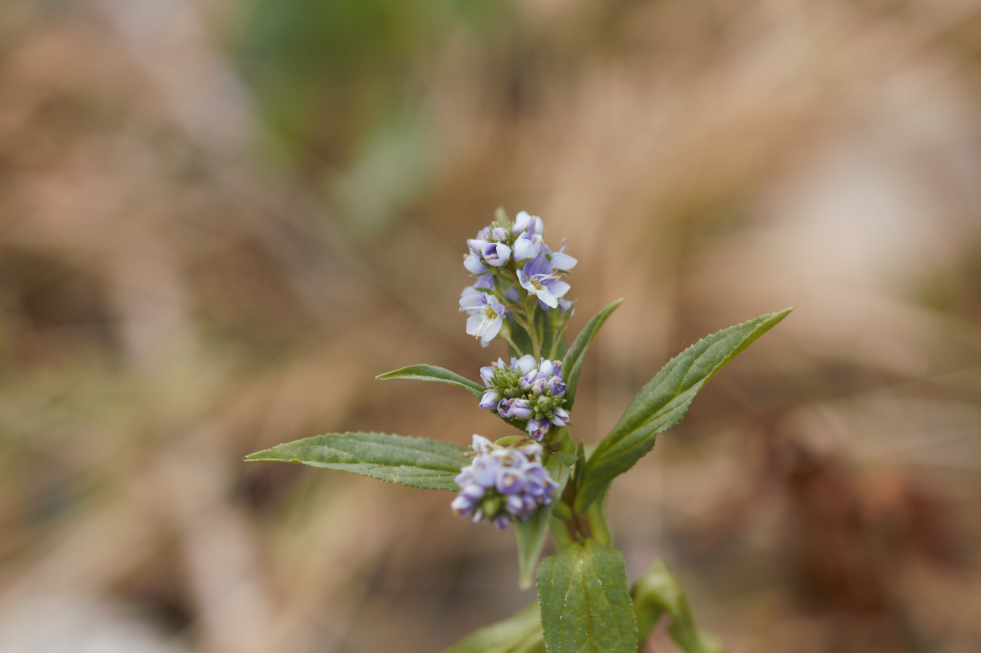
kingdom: Plantae
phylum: Tracheophyta
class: Magnoliopsida
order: Lamiales
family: Plantaginaceae
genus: Veronica
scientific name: Veronica anagallis-aquatica
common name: Water speedwell
